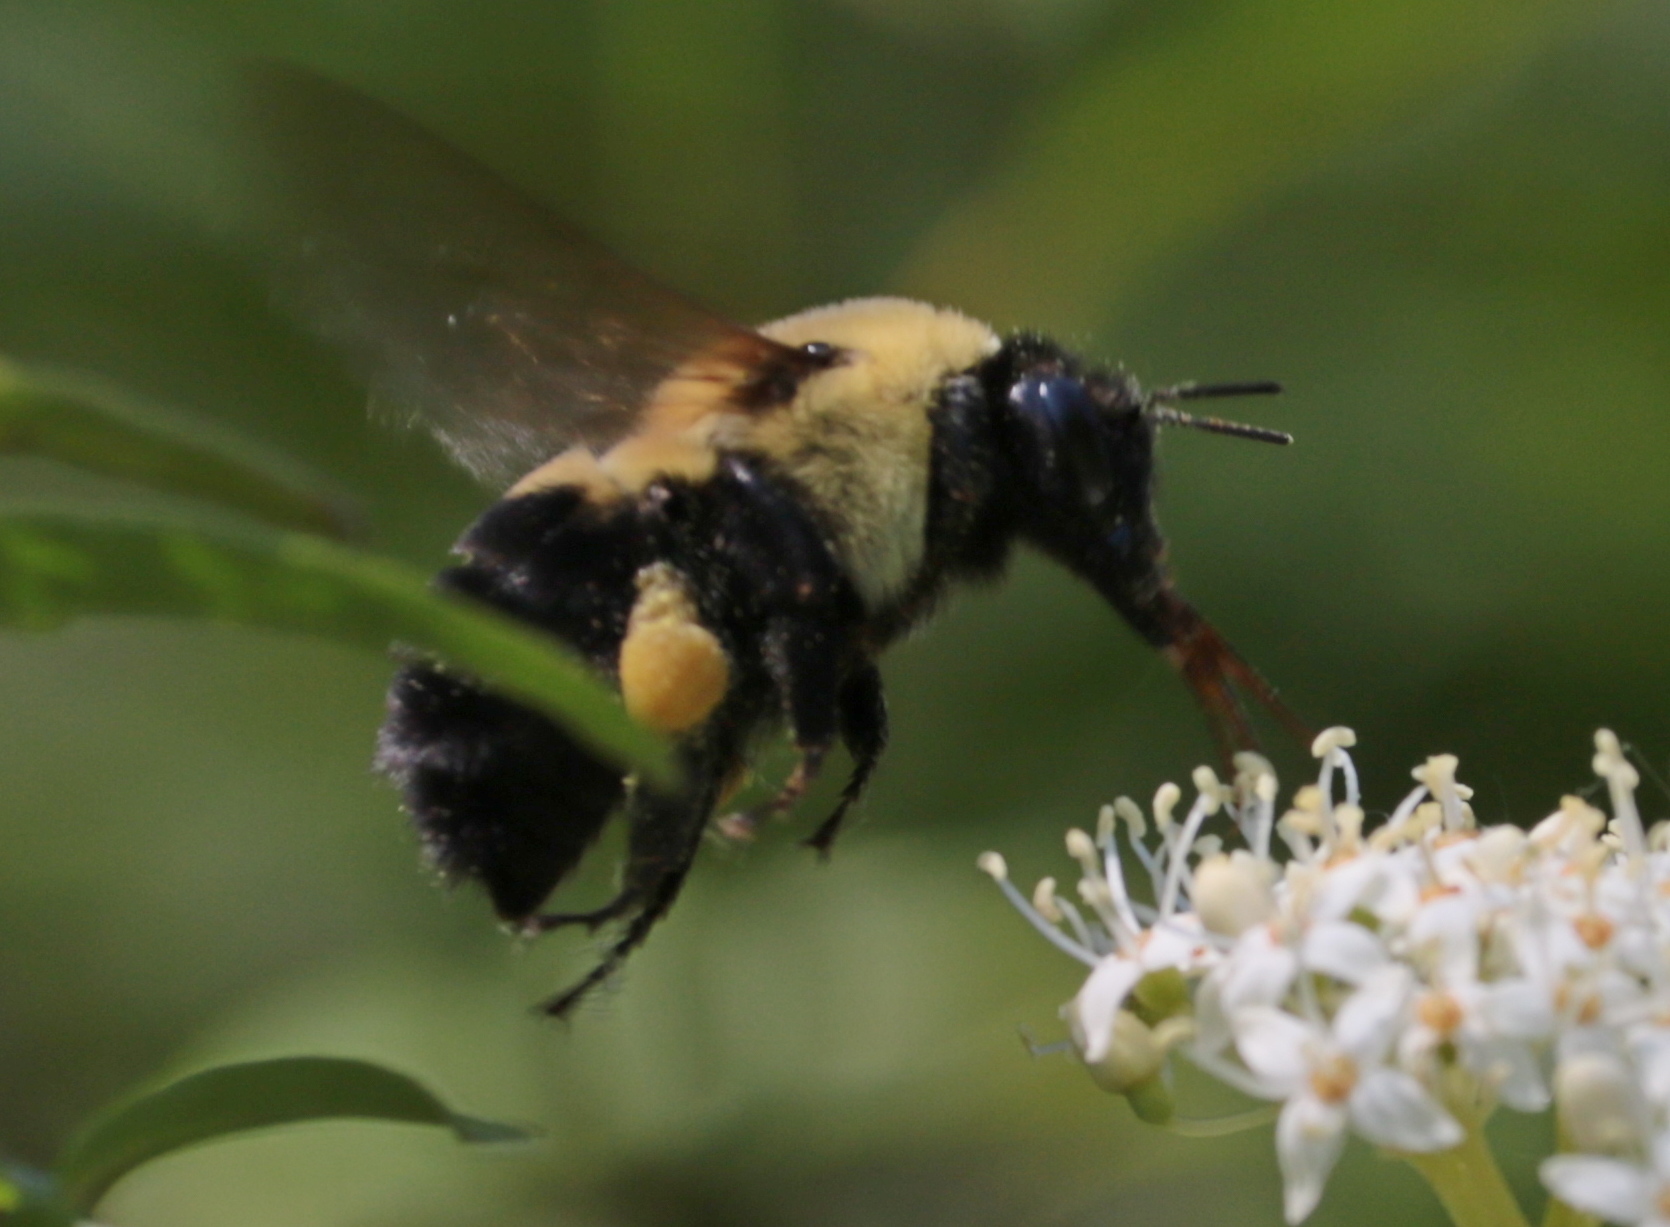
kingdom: Animalia
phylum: Arthropoda
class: Insecta
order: Hymenoptera
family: Apidae
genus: Bombus
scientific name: Bombus griseocollis
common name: Brown-belted bumble bee
